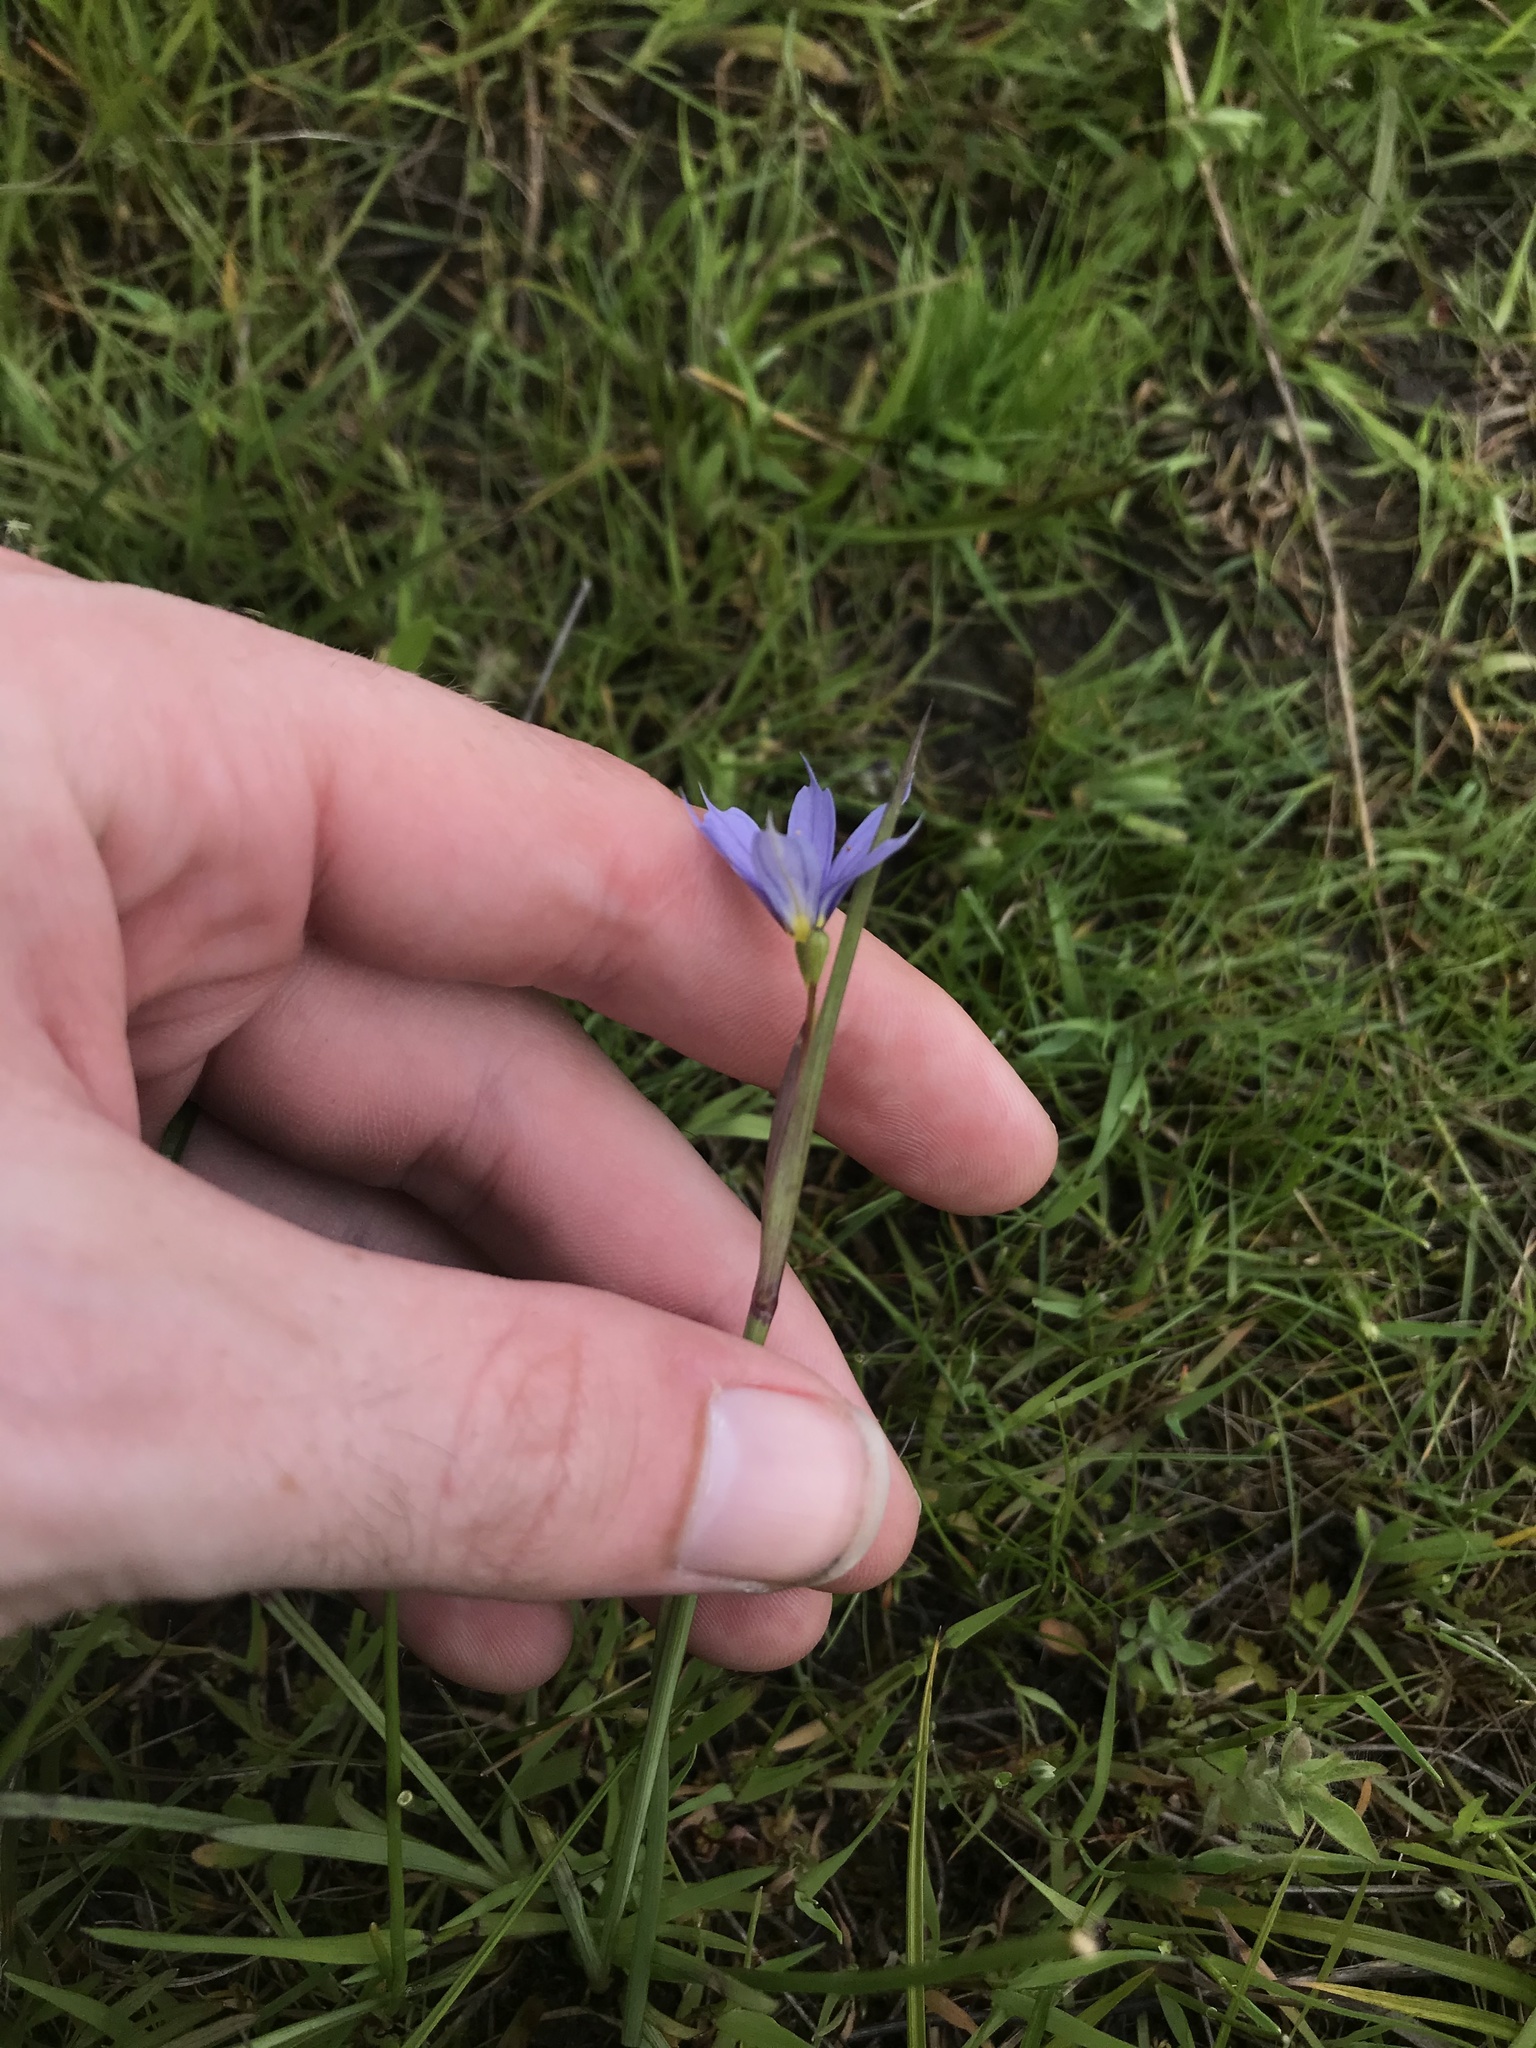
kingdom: Plantae
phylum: Tracheophyta
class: Liliopsida
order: Asparagales
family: Iridaceae
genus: Sisyrinchium
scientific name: Sisyrinchium bellum
